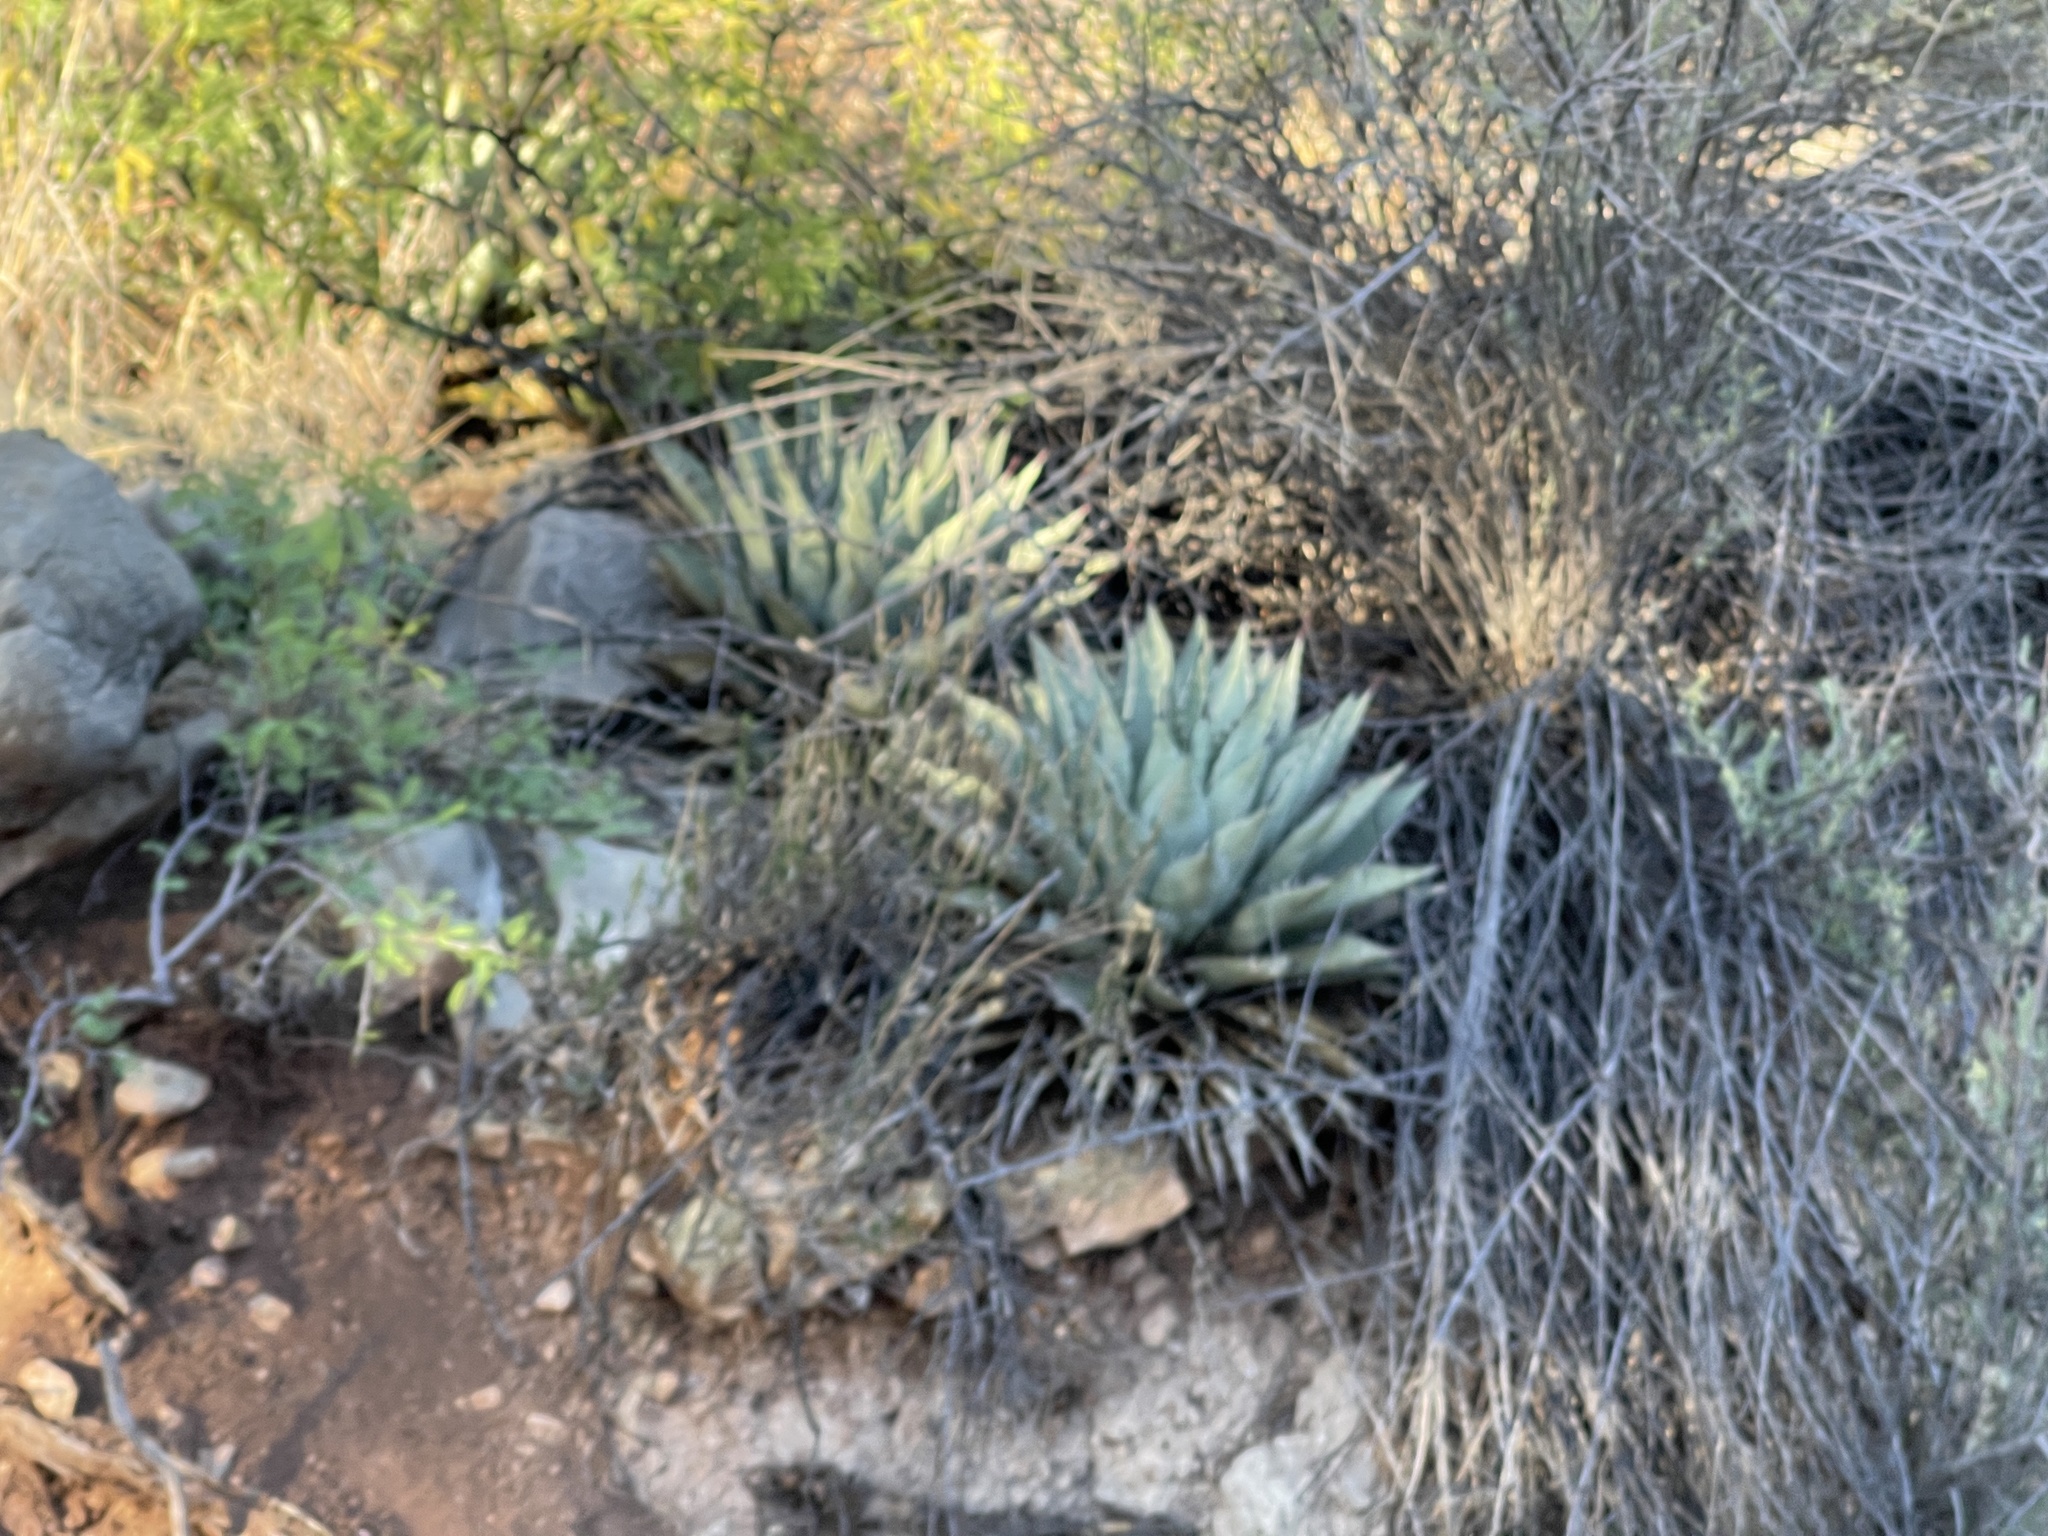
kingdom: Plantae
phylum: Tracheophyta
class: Liliopsida
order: Asparagales
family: Asparagaceae
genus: Agave
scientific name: Agave parryi
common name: Parry's agave
